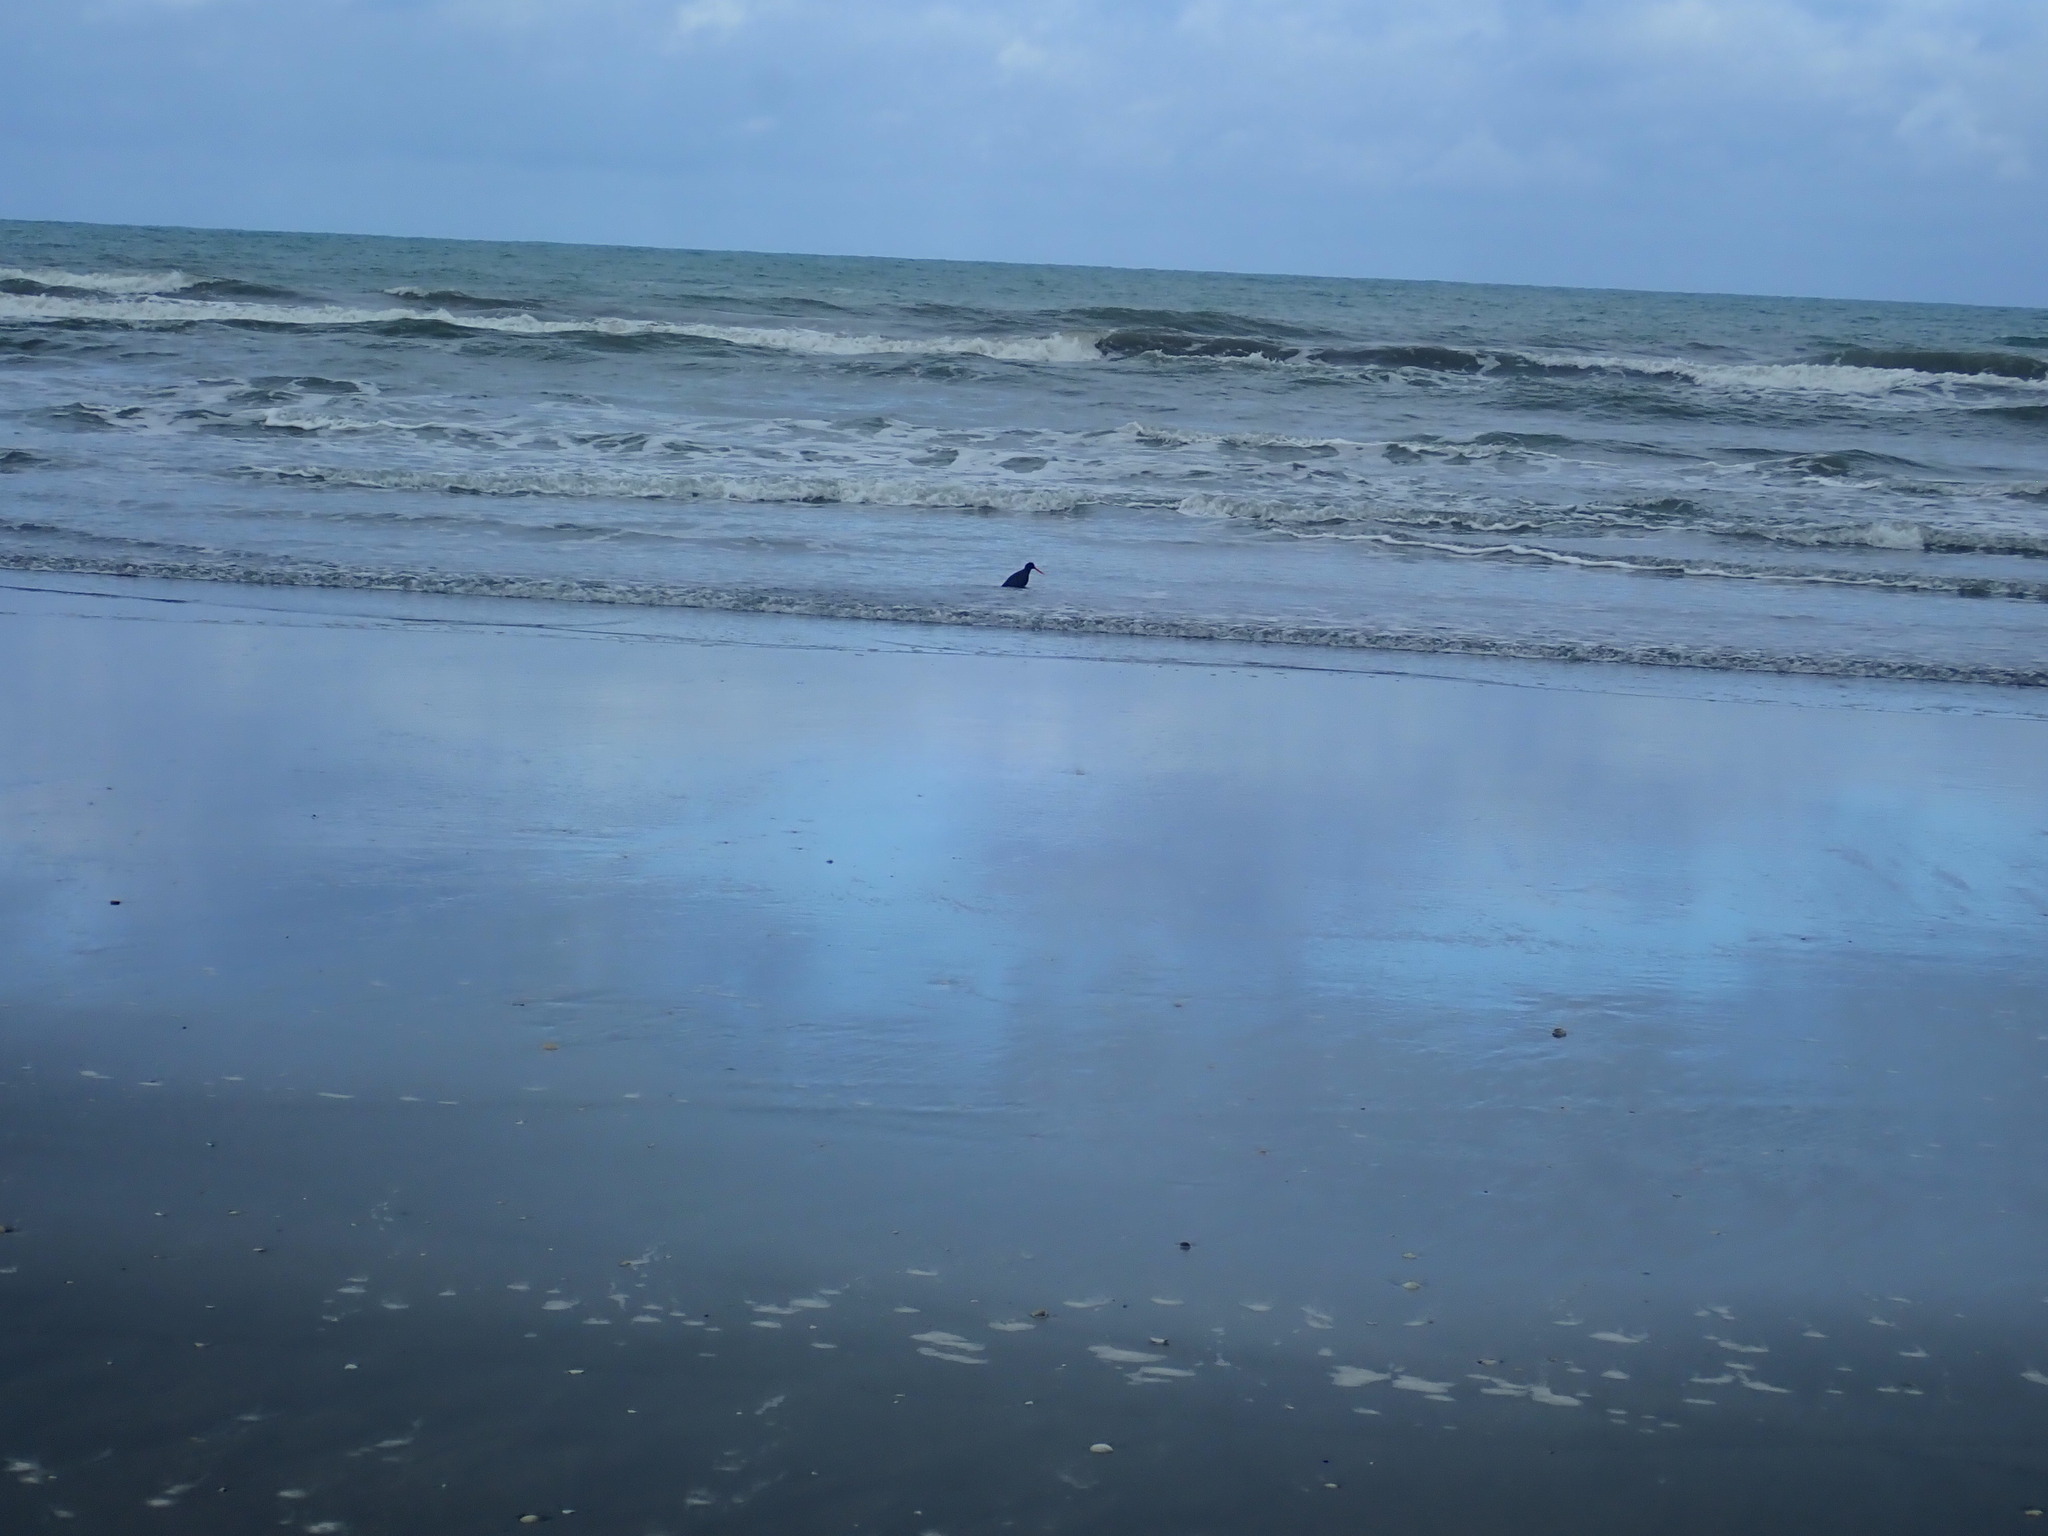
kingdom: Animalia
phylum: Chordata
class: Aves
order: Charadriiformes
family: Haematopodidae
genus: Haematopus
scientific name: Haematopus unicolor
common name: Variable oystercatcher
